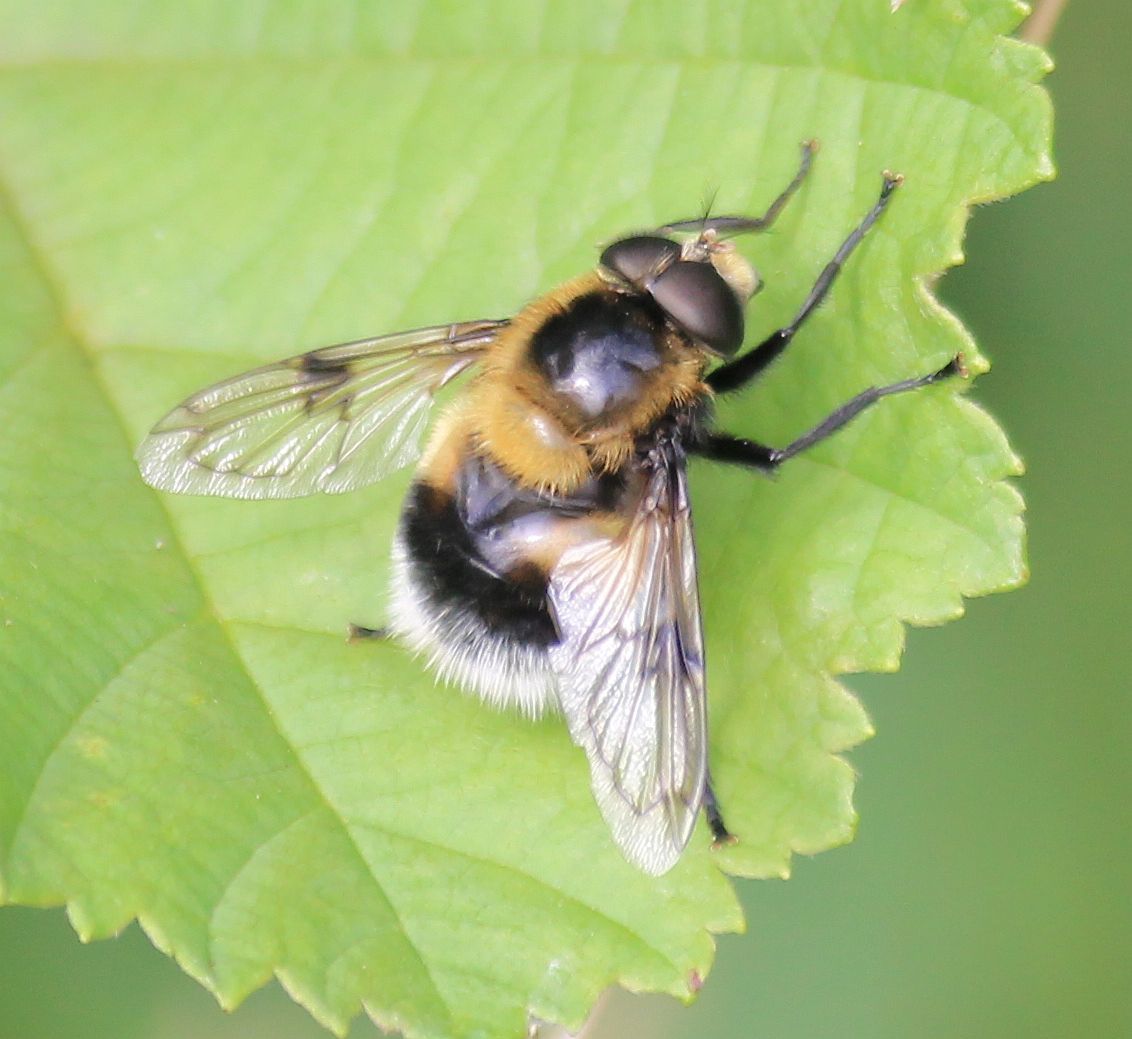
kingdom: Animalia
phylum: Arthropoda
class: Insecta
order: Diptera
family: Syrphidae
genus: Volucella
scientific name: Volucella bombylans
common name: Bumble bee hover fly
